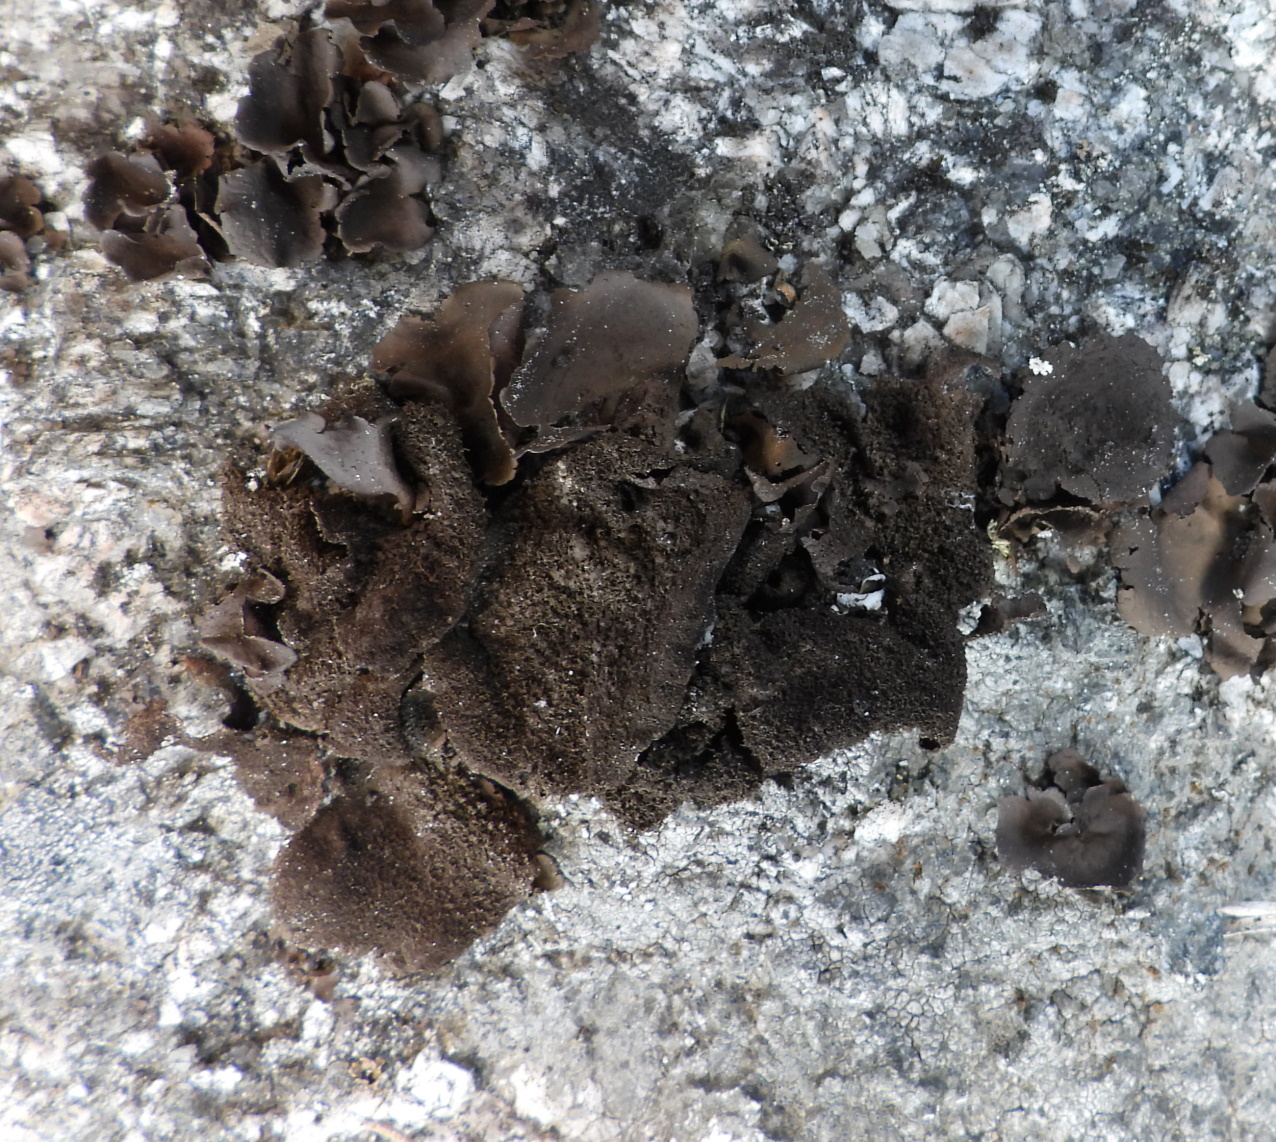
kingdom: Fungi
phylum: Ascomycota
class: Lecanoromycetes
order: Umbilicariales
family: Umbilicariaceae
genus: Umbilicaria
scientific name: Umbilicaria deusta
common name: Peppered rock tripe
